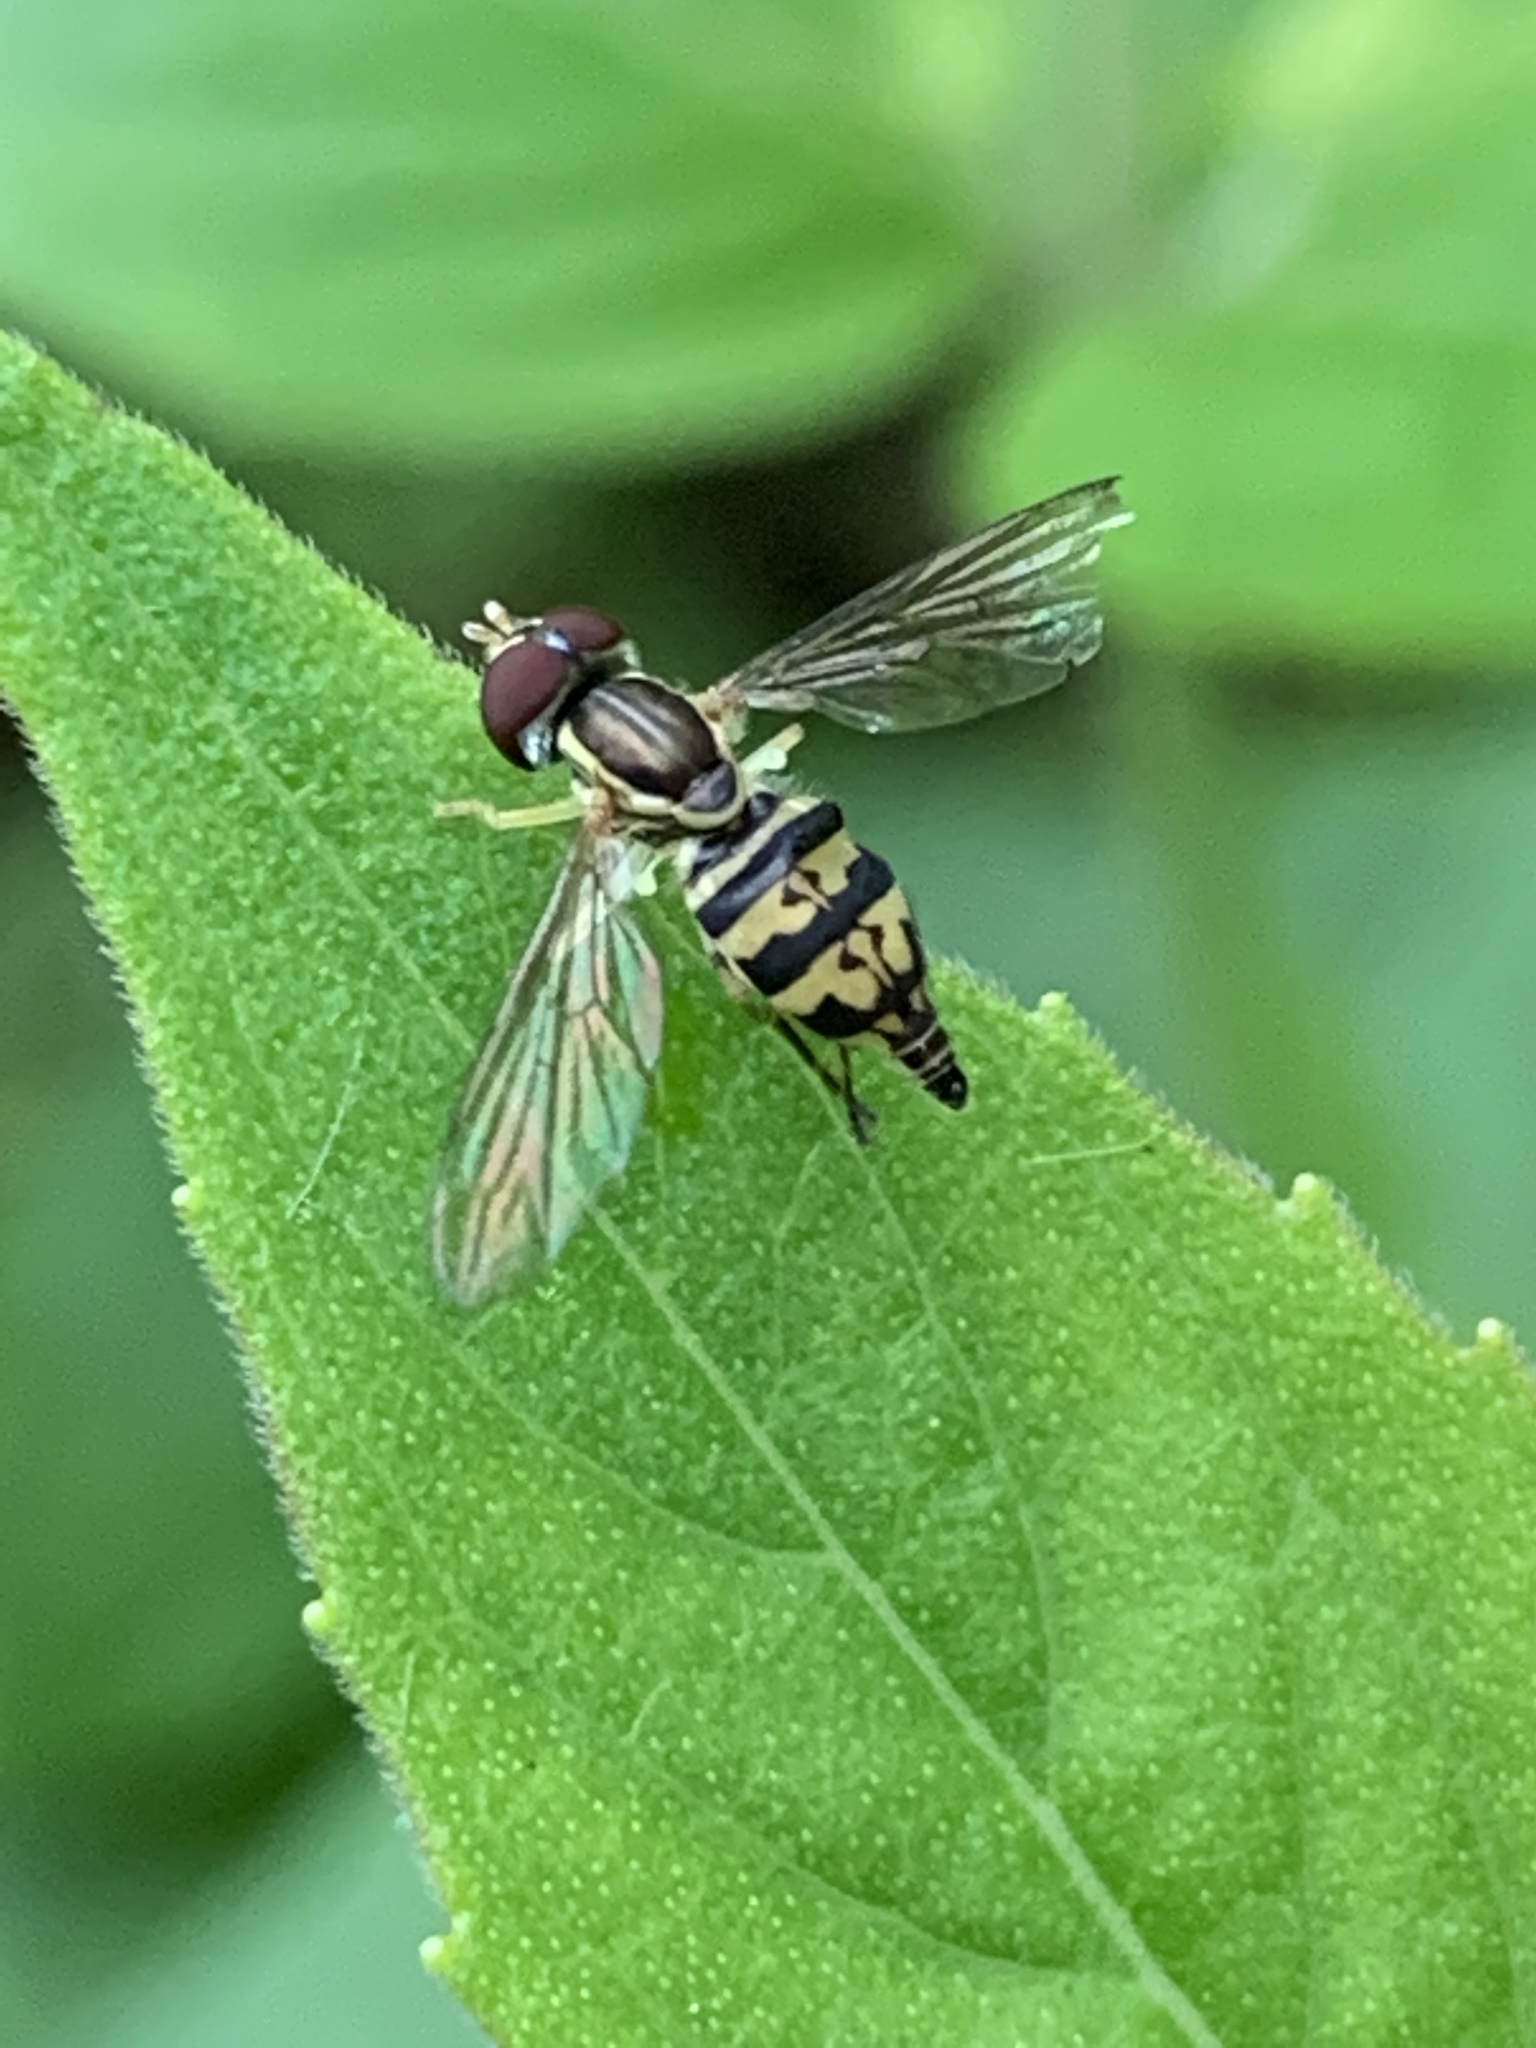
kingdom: Animalia
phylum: Arthropoda
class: Insecta
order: Diptera
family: Syrphidae
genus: Toxomerus
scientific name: Toxomerus geminatus
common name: Eastern calligrapher
